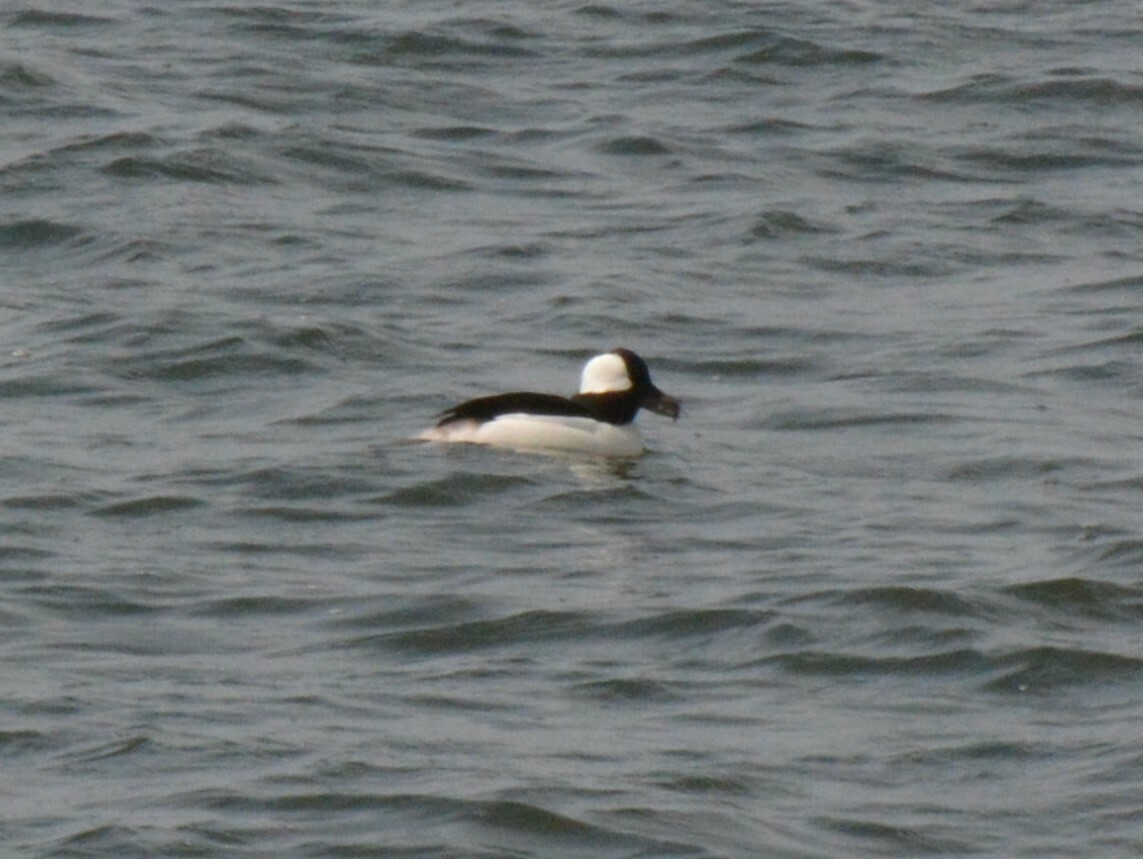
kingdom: Animalia
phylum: Chordata
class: Aves
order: Anseriformes
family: Anatidae
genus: Bucephala
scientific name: Bucephala albeola
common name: Bufflehead
